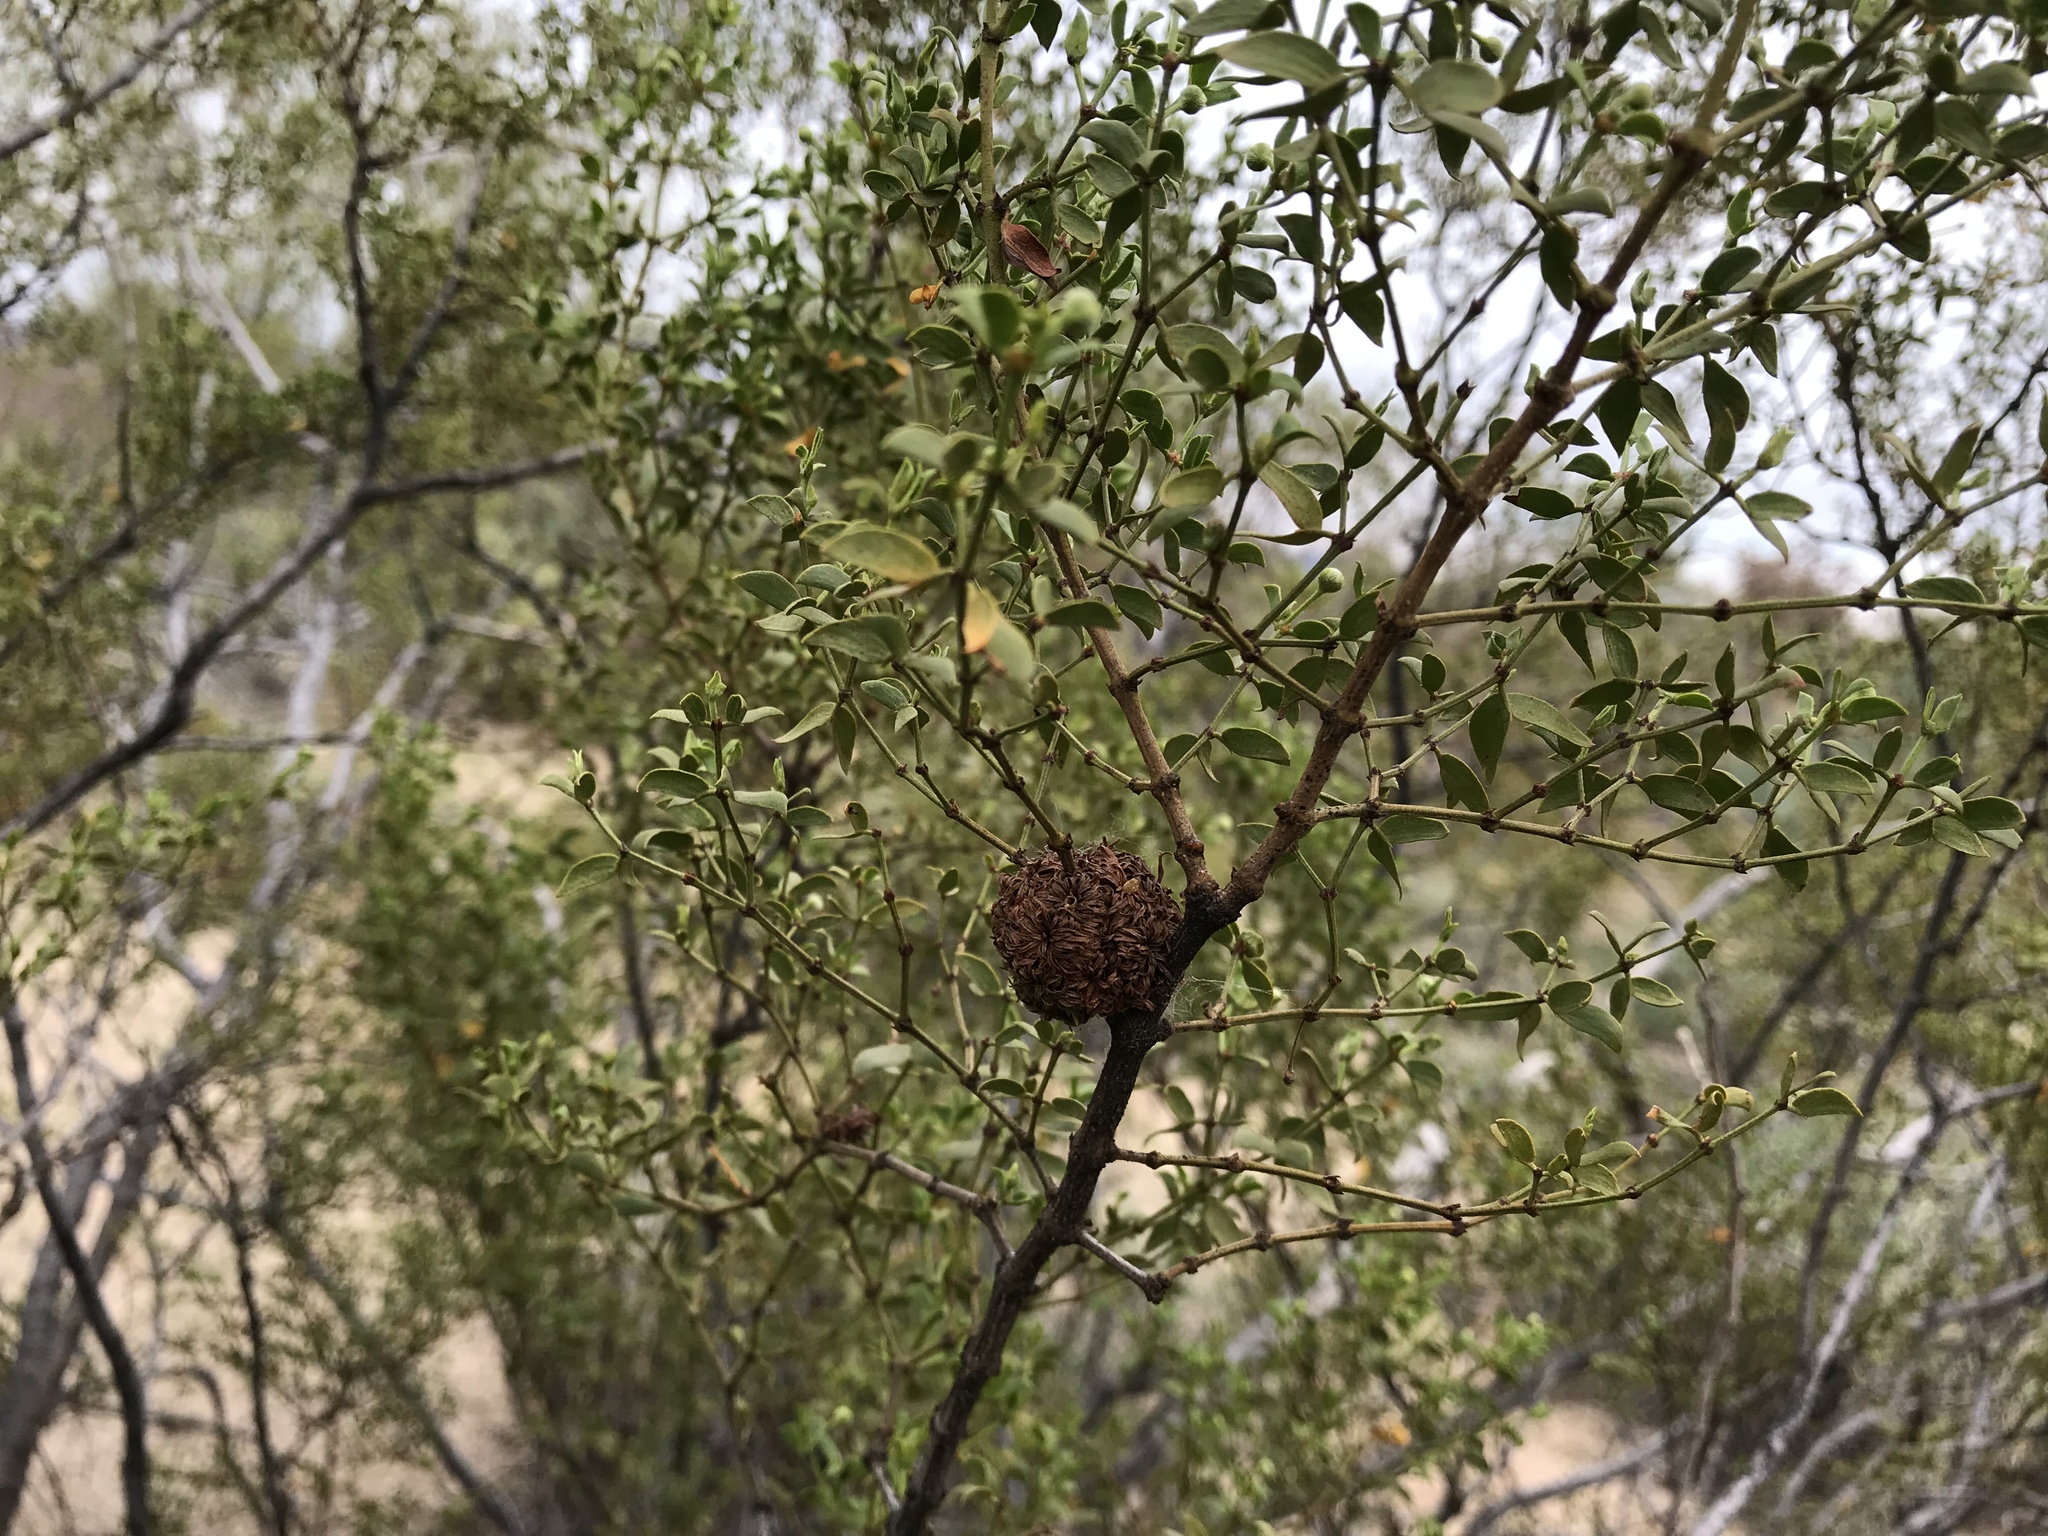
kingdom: Animalia
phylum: Arthropoda
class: Insecta
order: Diptera
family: Cecidomyiidae
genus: Asphondylia
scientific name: Asphondylia auripila
